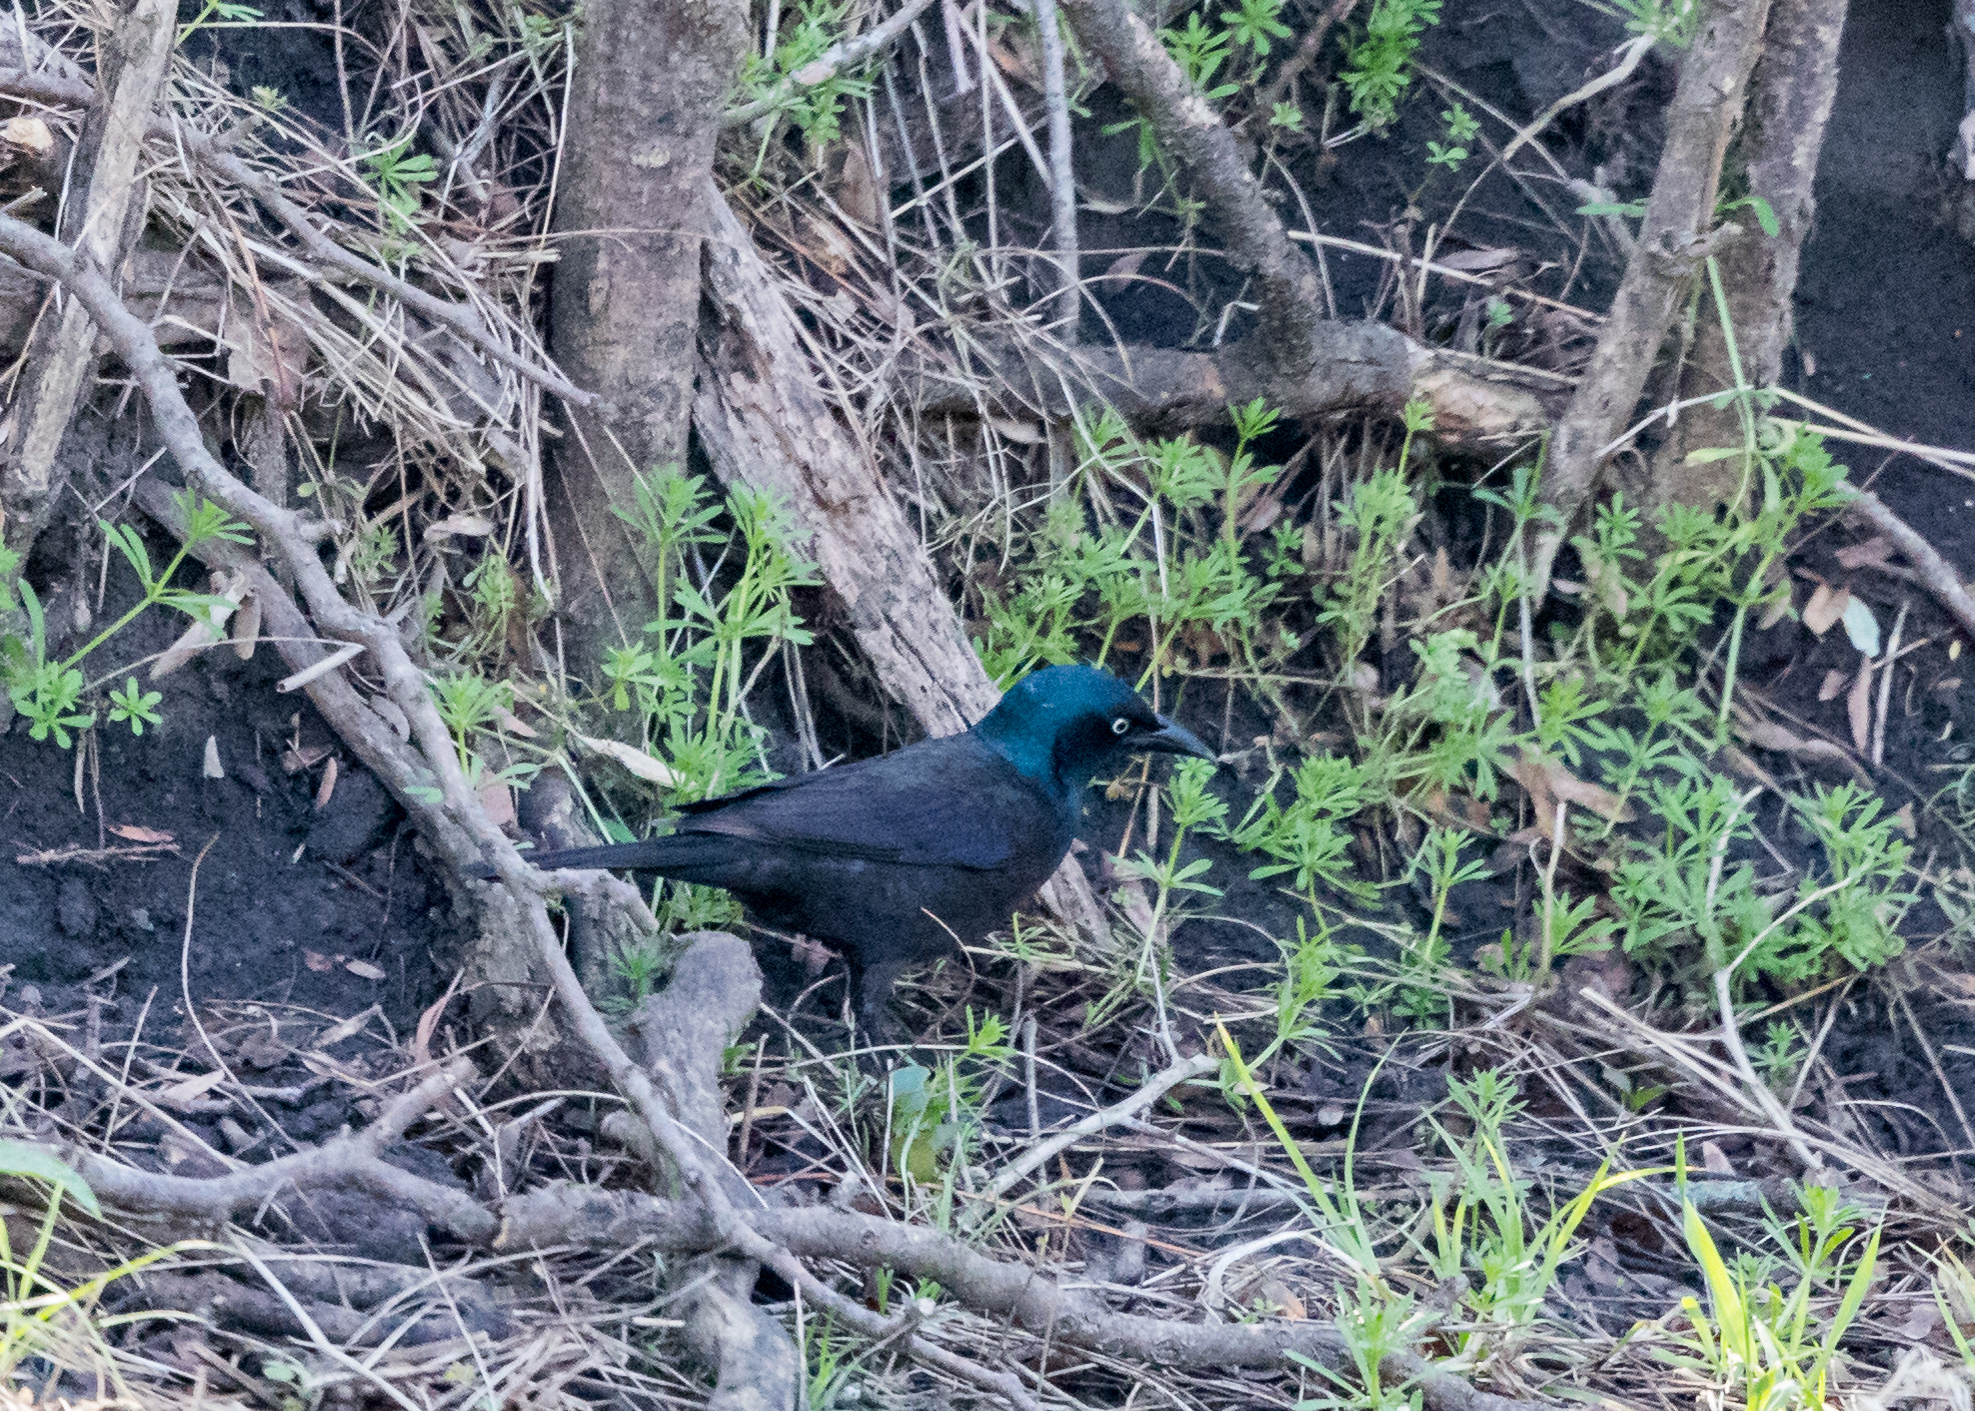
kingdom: Animalia
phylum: Chordata
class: Aves
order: Passeriformes
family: Icteridae
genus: Quiscalus
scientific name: Quiscalus quiscula
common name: Common grackle
